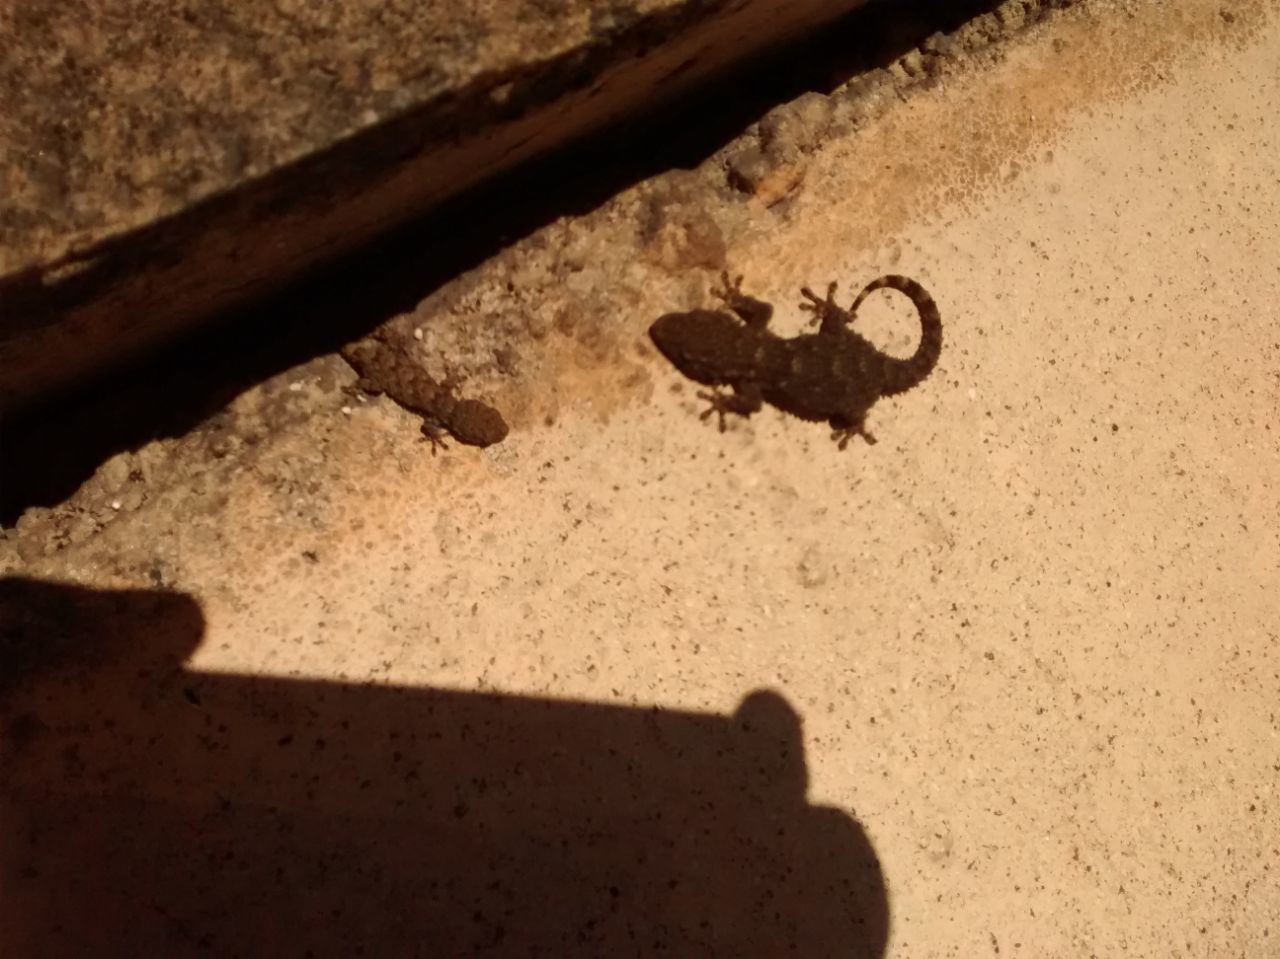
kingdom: Animalia
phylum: Chordata
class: Squamata
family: Phyllodactylidae
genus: Tarentola
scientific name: Tarentola mauritanica
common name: Moorish gecko
